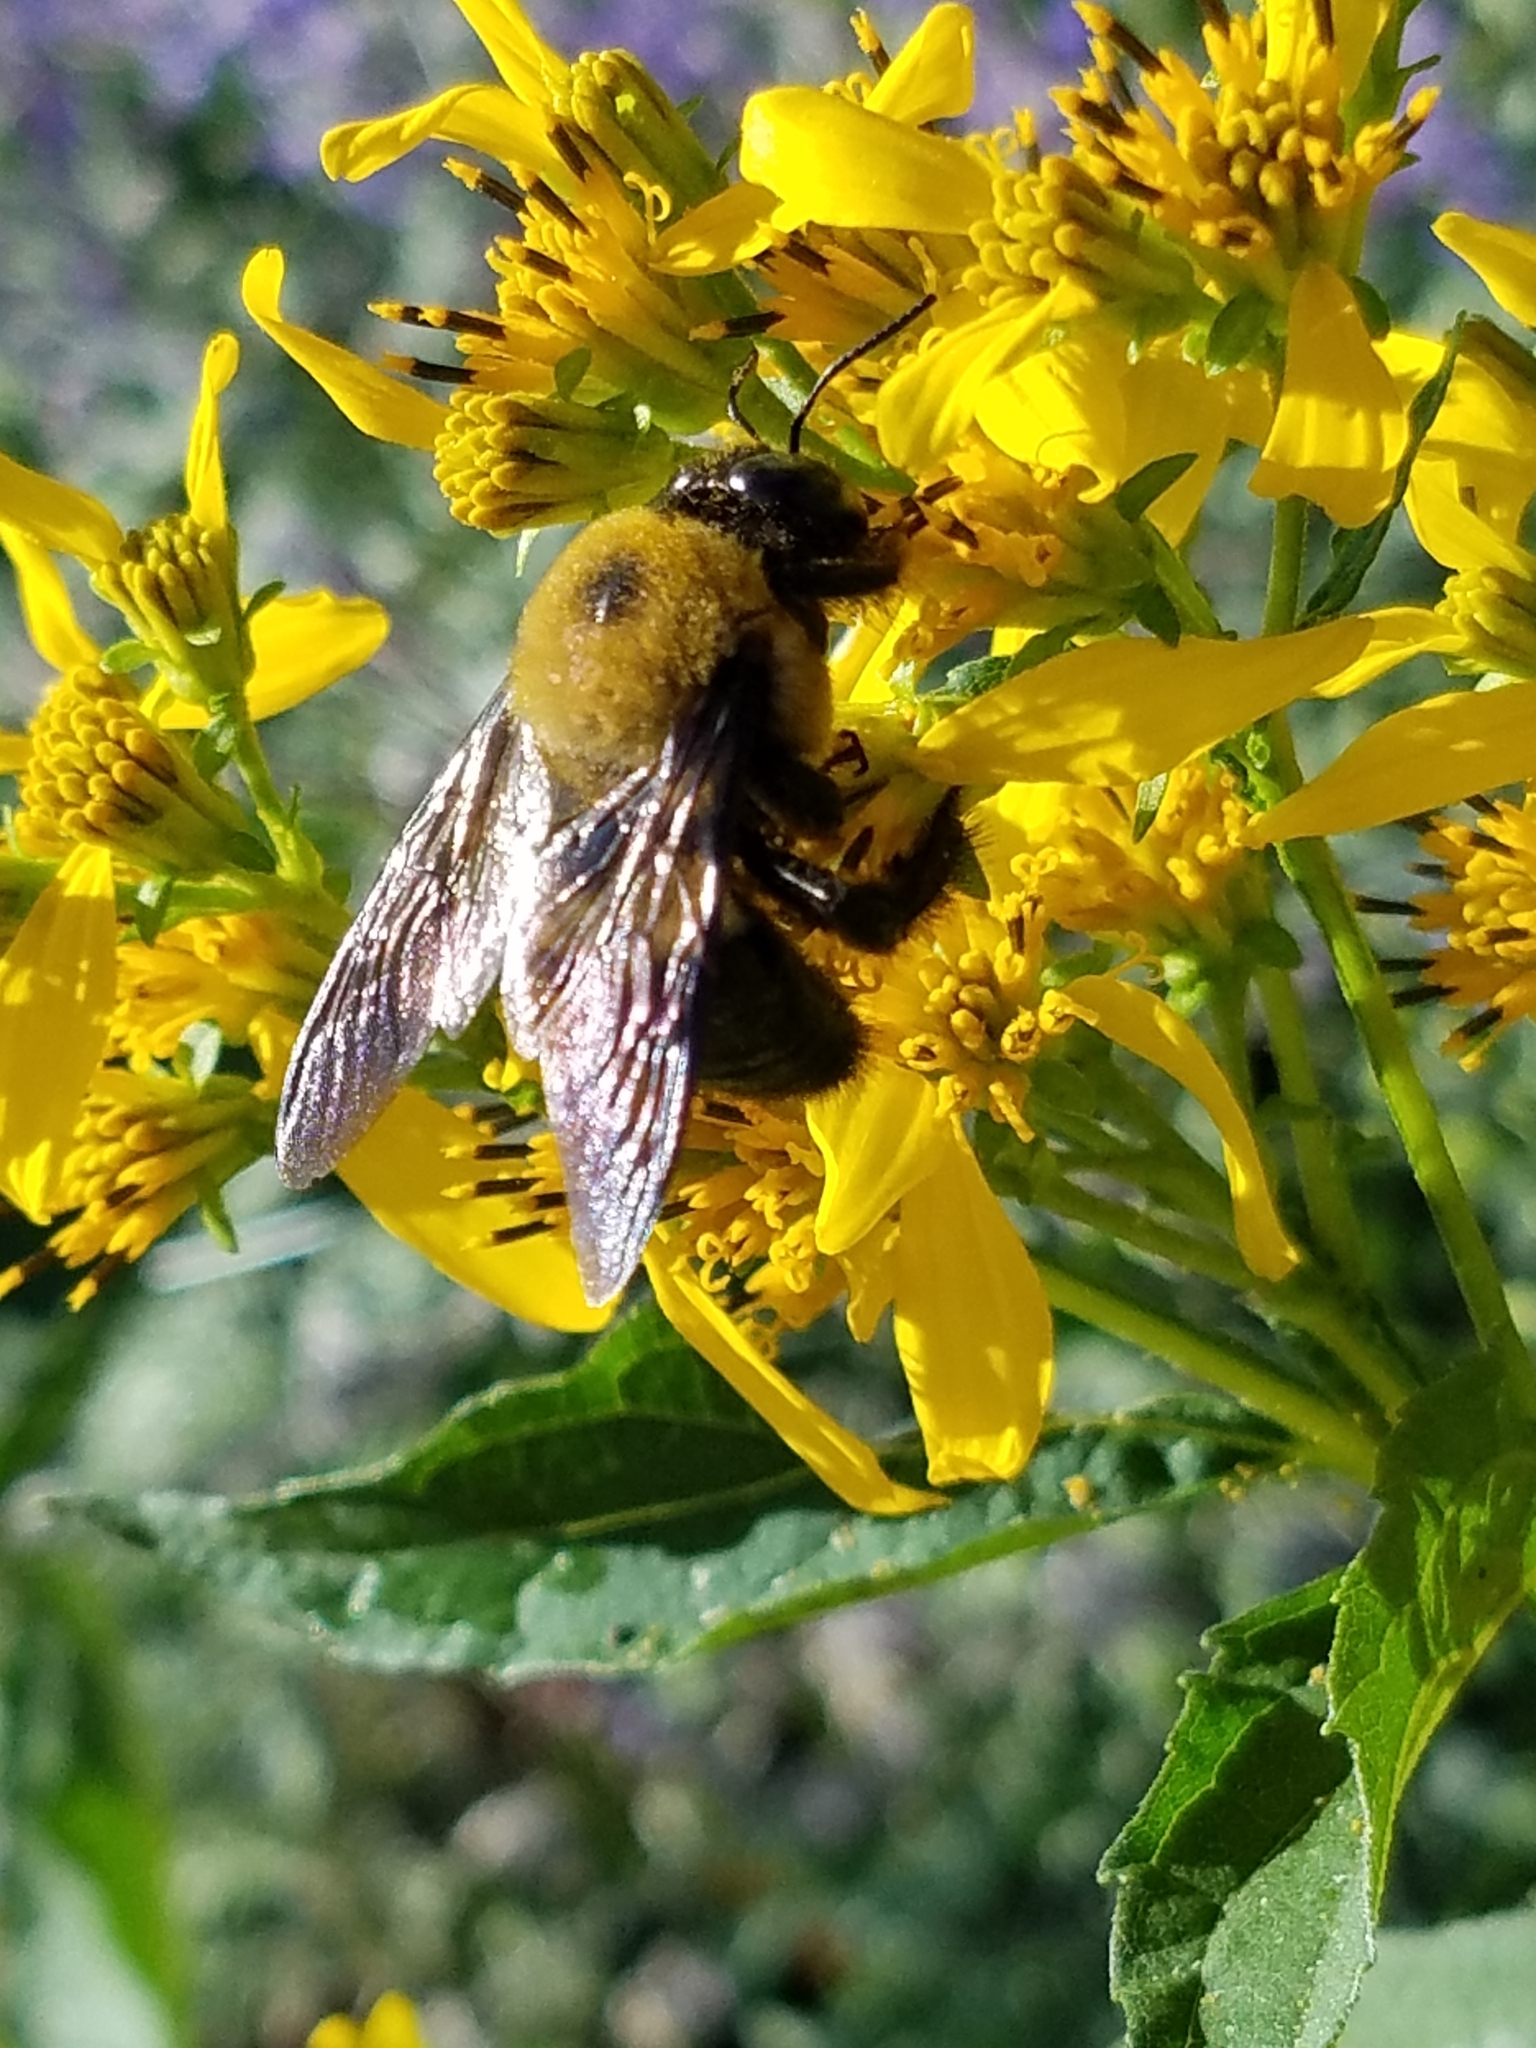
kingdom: Animalia
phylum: Arthropoda
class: Insecta
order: Hymenoptera
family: Apidae
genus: Xylocopa
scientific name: Xylocopa virginica
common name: Carpenter bee
